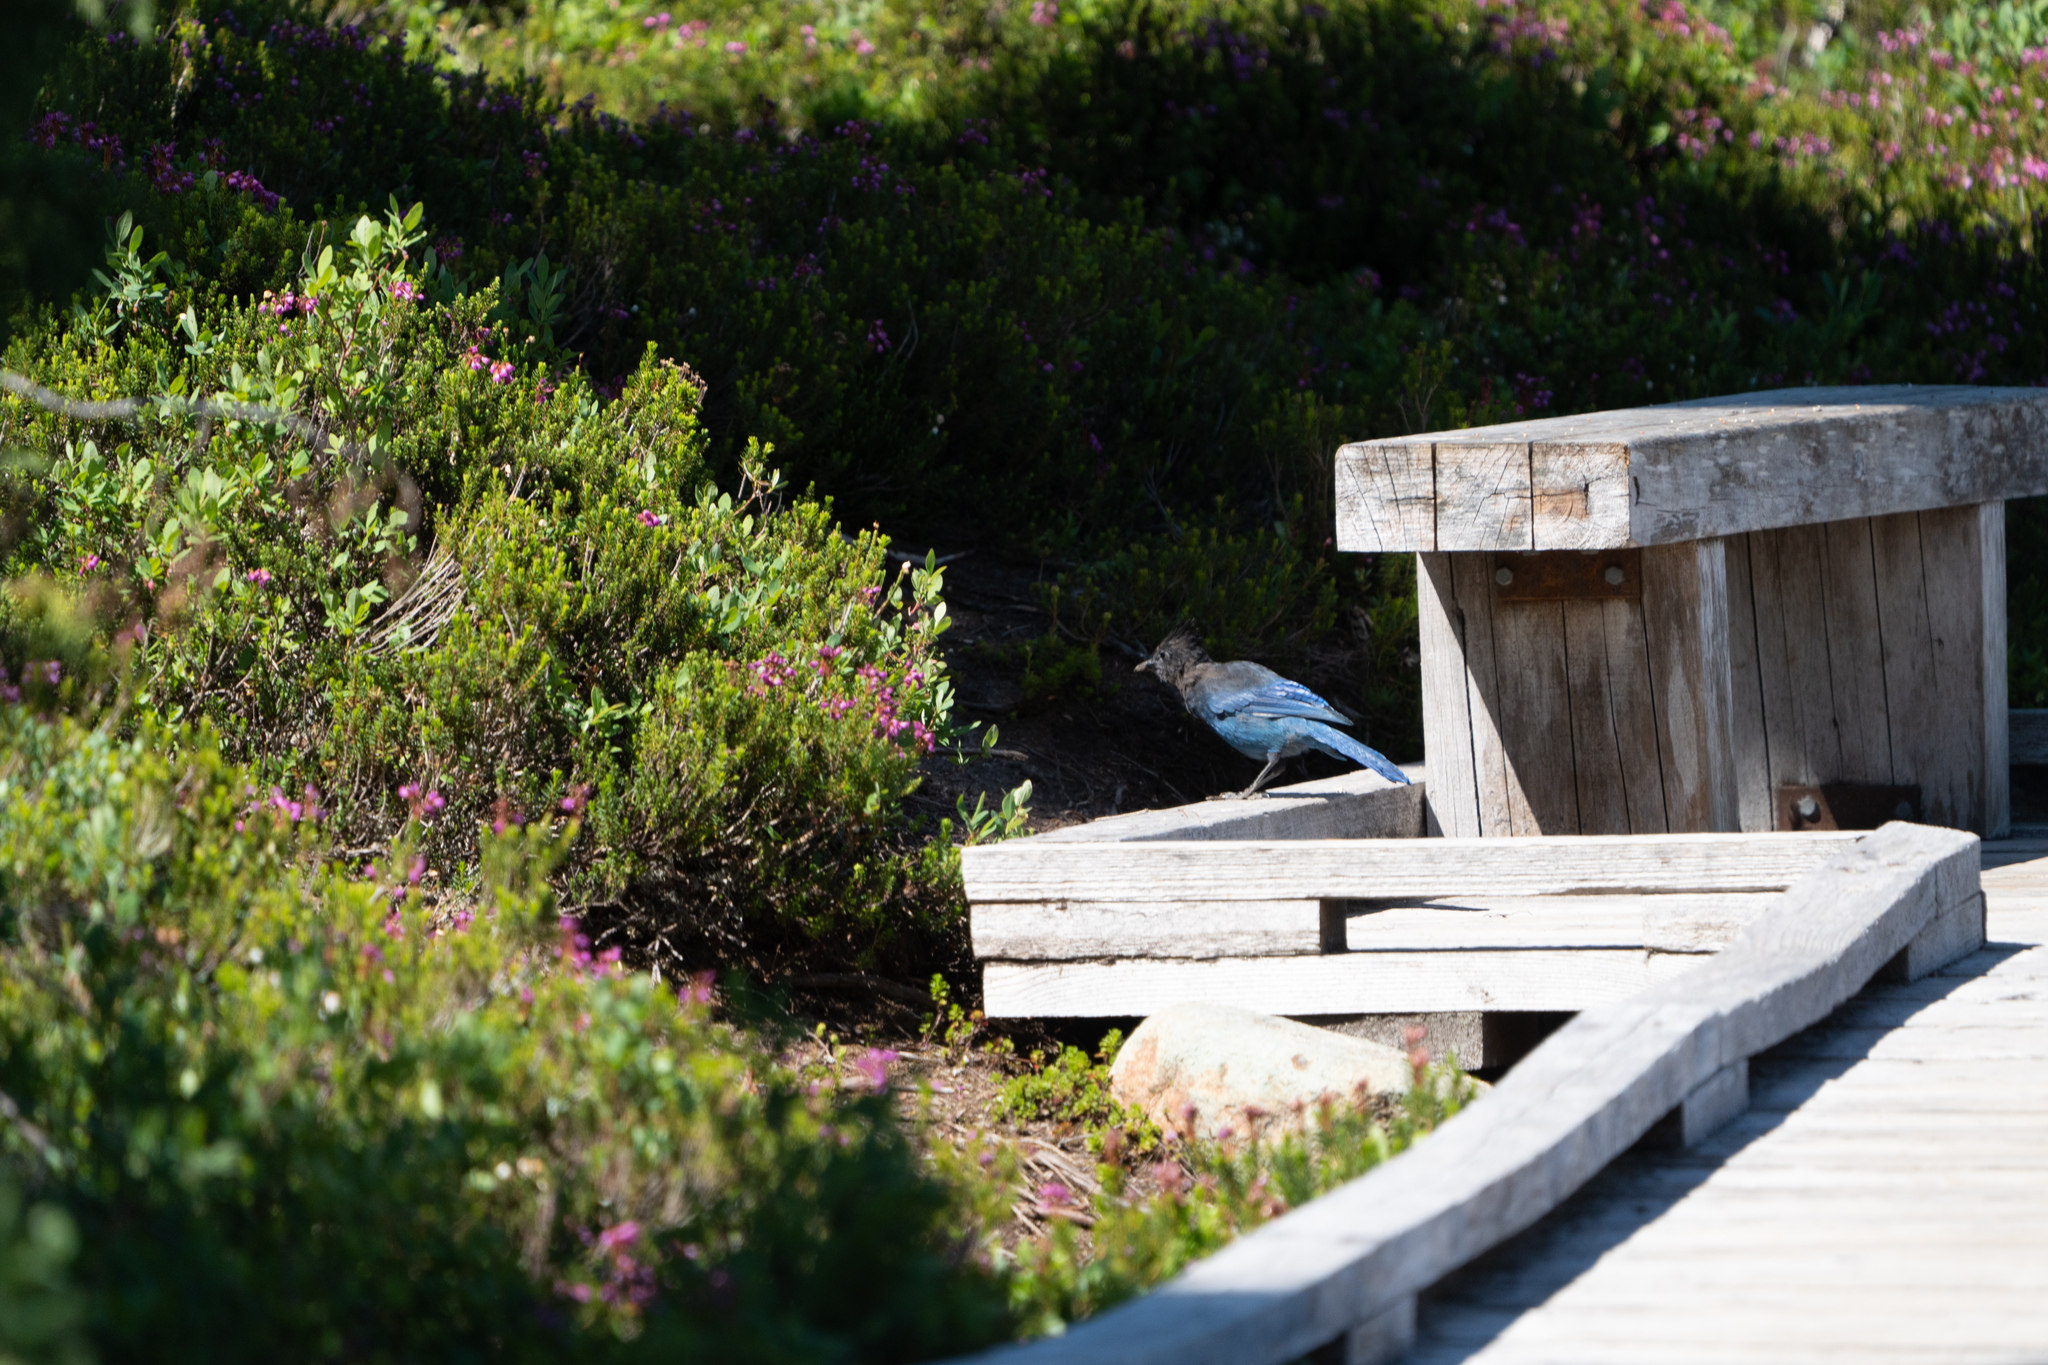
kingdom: Animalia
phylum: Chordata
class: Aves
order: Passeriformes
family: Corvidae
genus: Cyanocitta
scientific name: Cyanocitta stelleri
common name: Steller's jay
